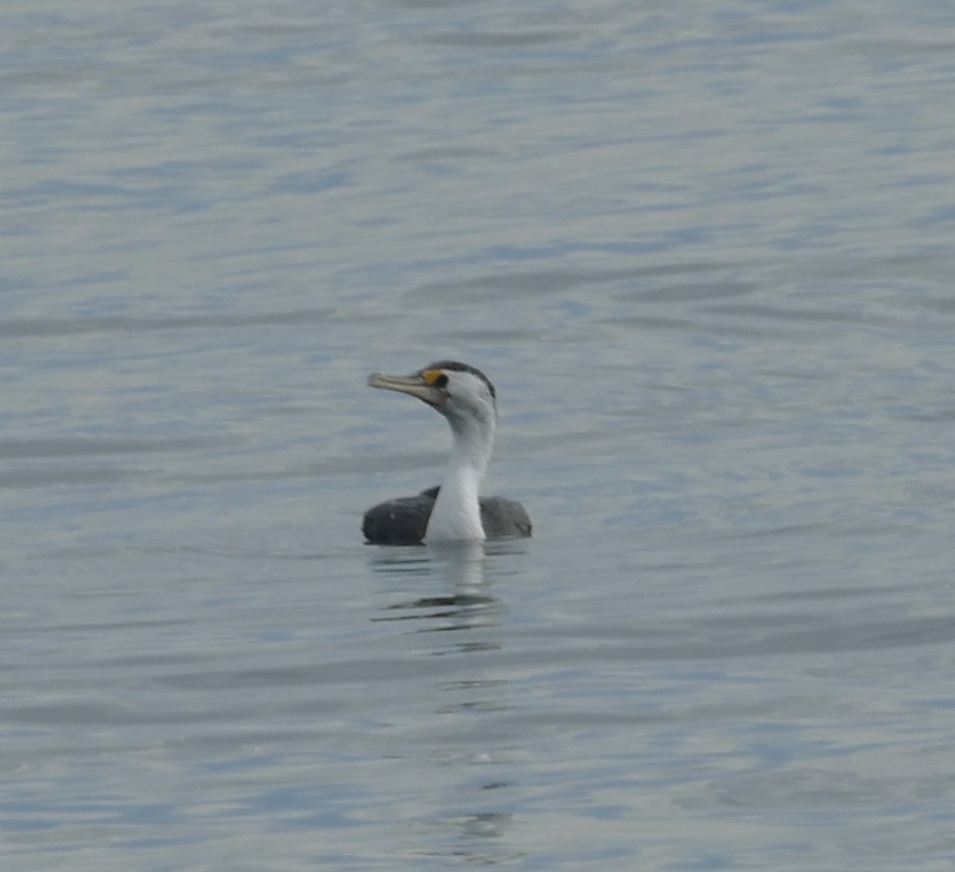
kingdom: Animalia
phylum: Chordata
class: Aves
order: Suliformes
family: Phalacrocoracidae
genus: Phalacrocorax
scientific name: Phalacrocorax varius
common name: Pied cormorant
